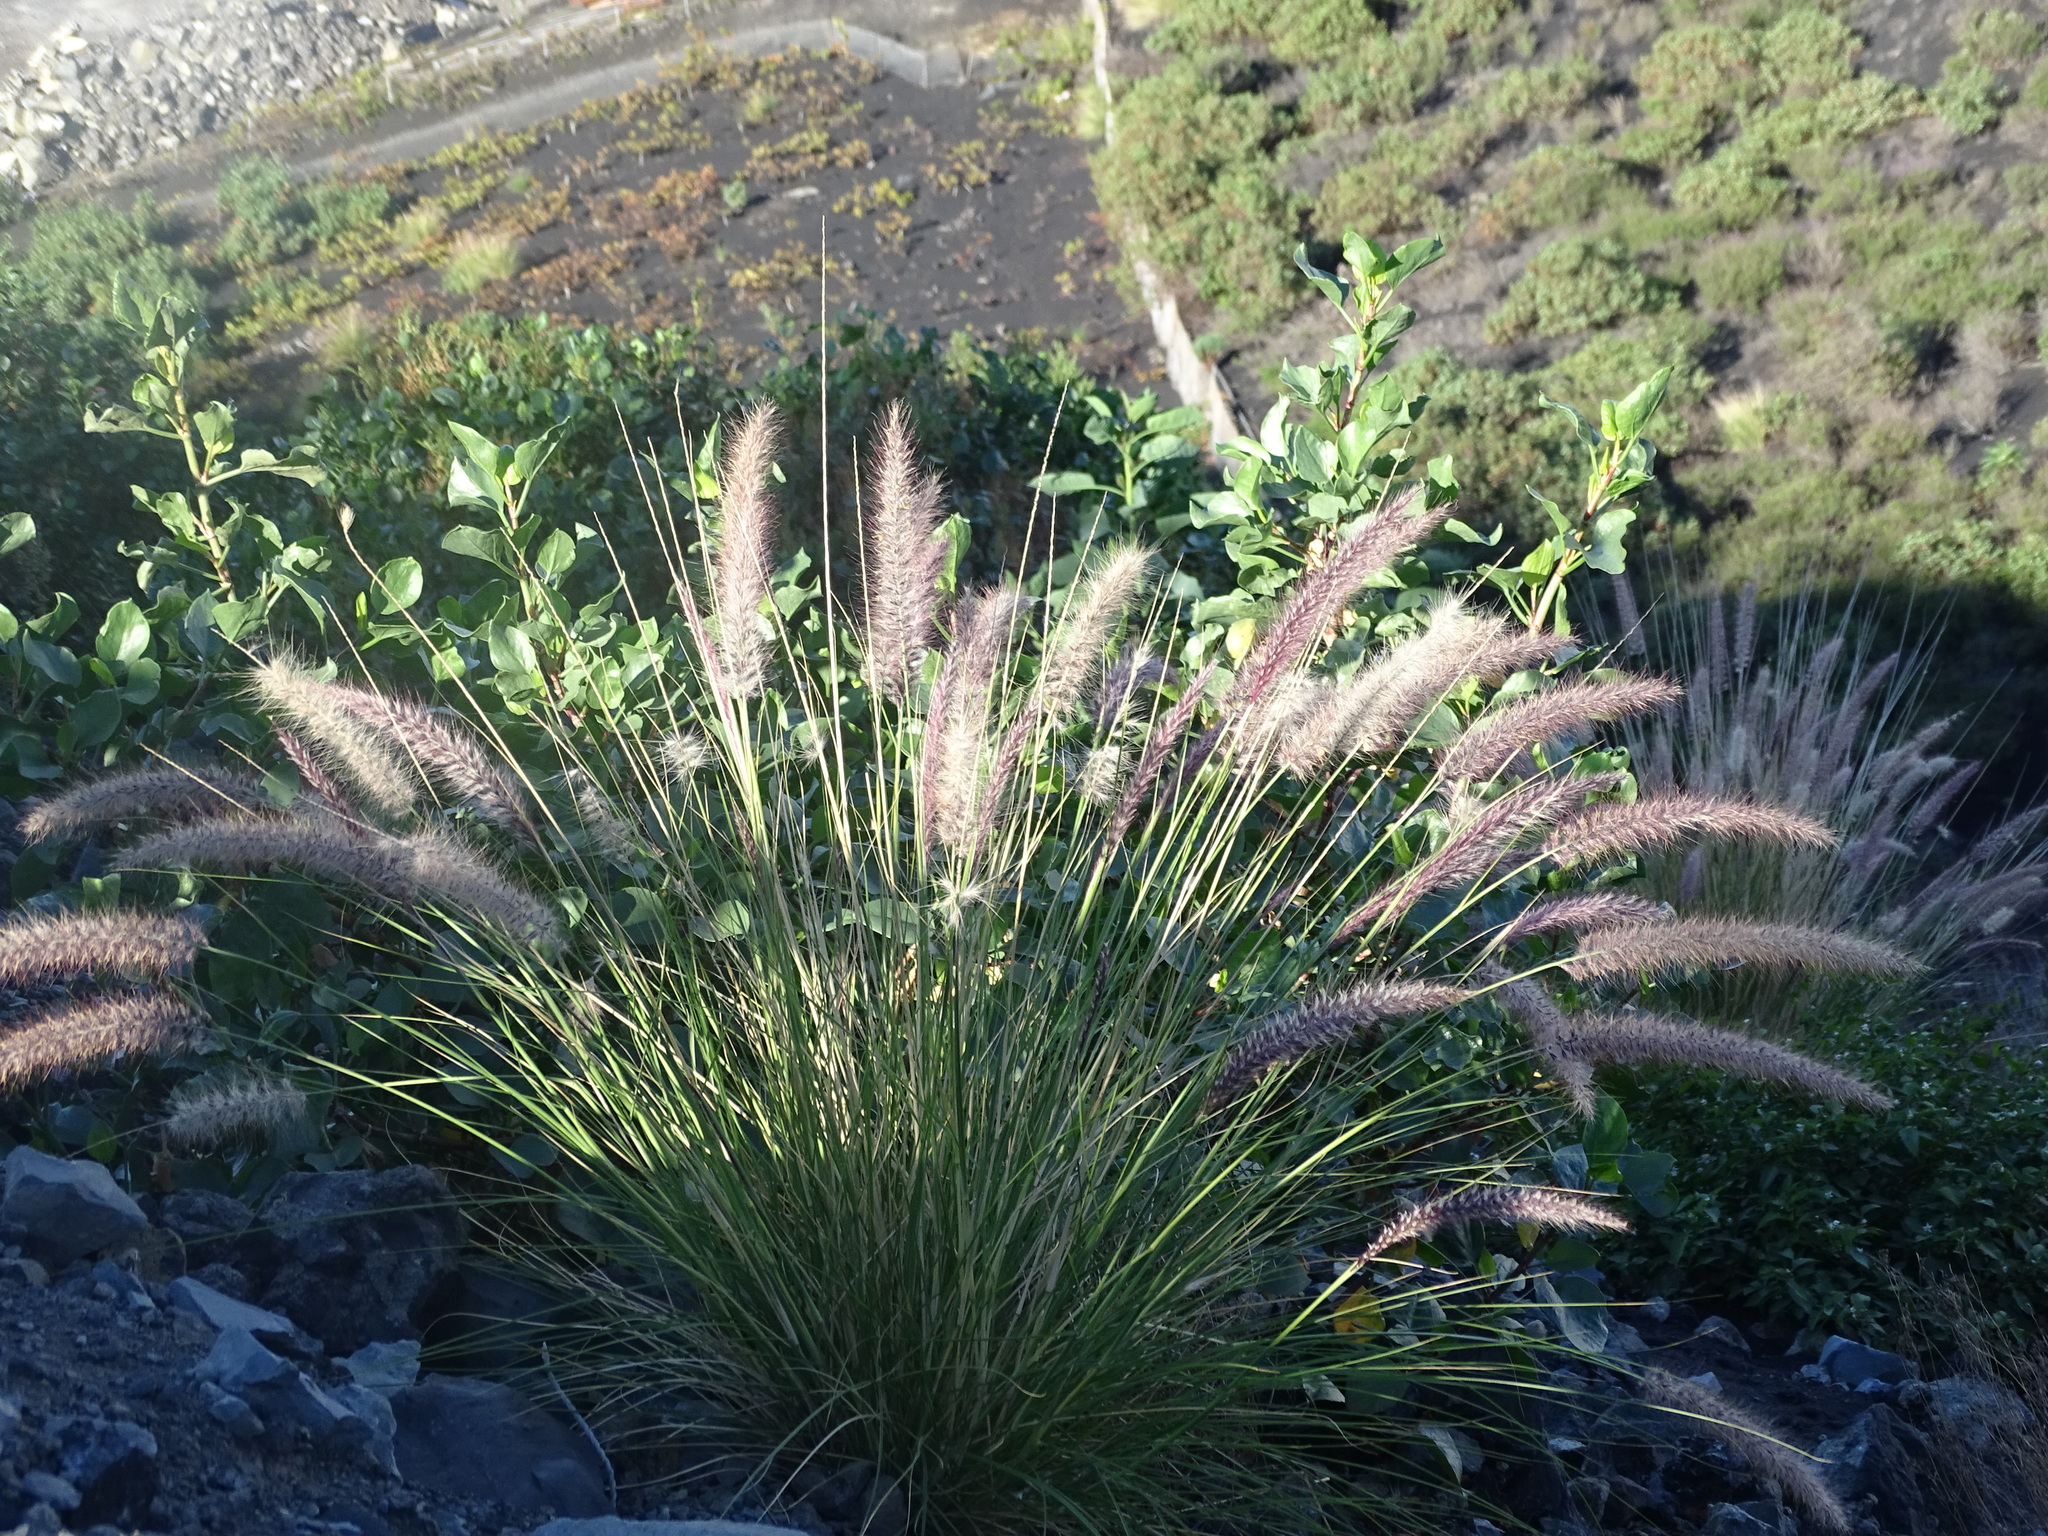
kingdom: Plantae
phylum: Tracheophyta
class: Liliopsida
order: Poales
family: Poaceae
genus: Cenchrus
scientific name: Cenchrus setaceus
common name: Crimson fountaingrass
